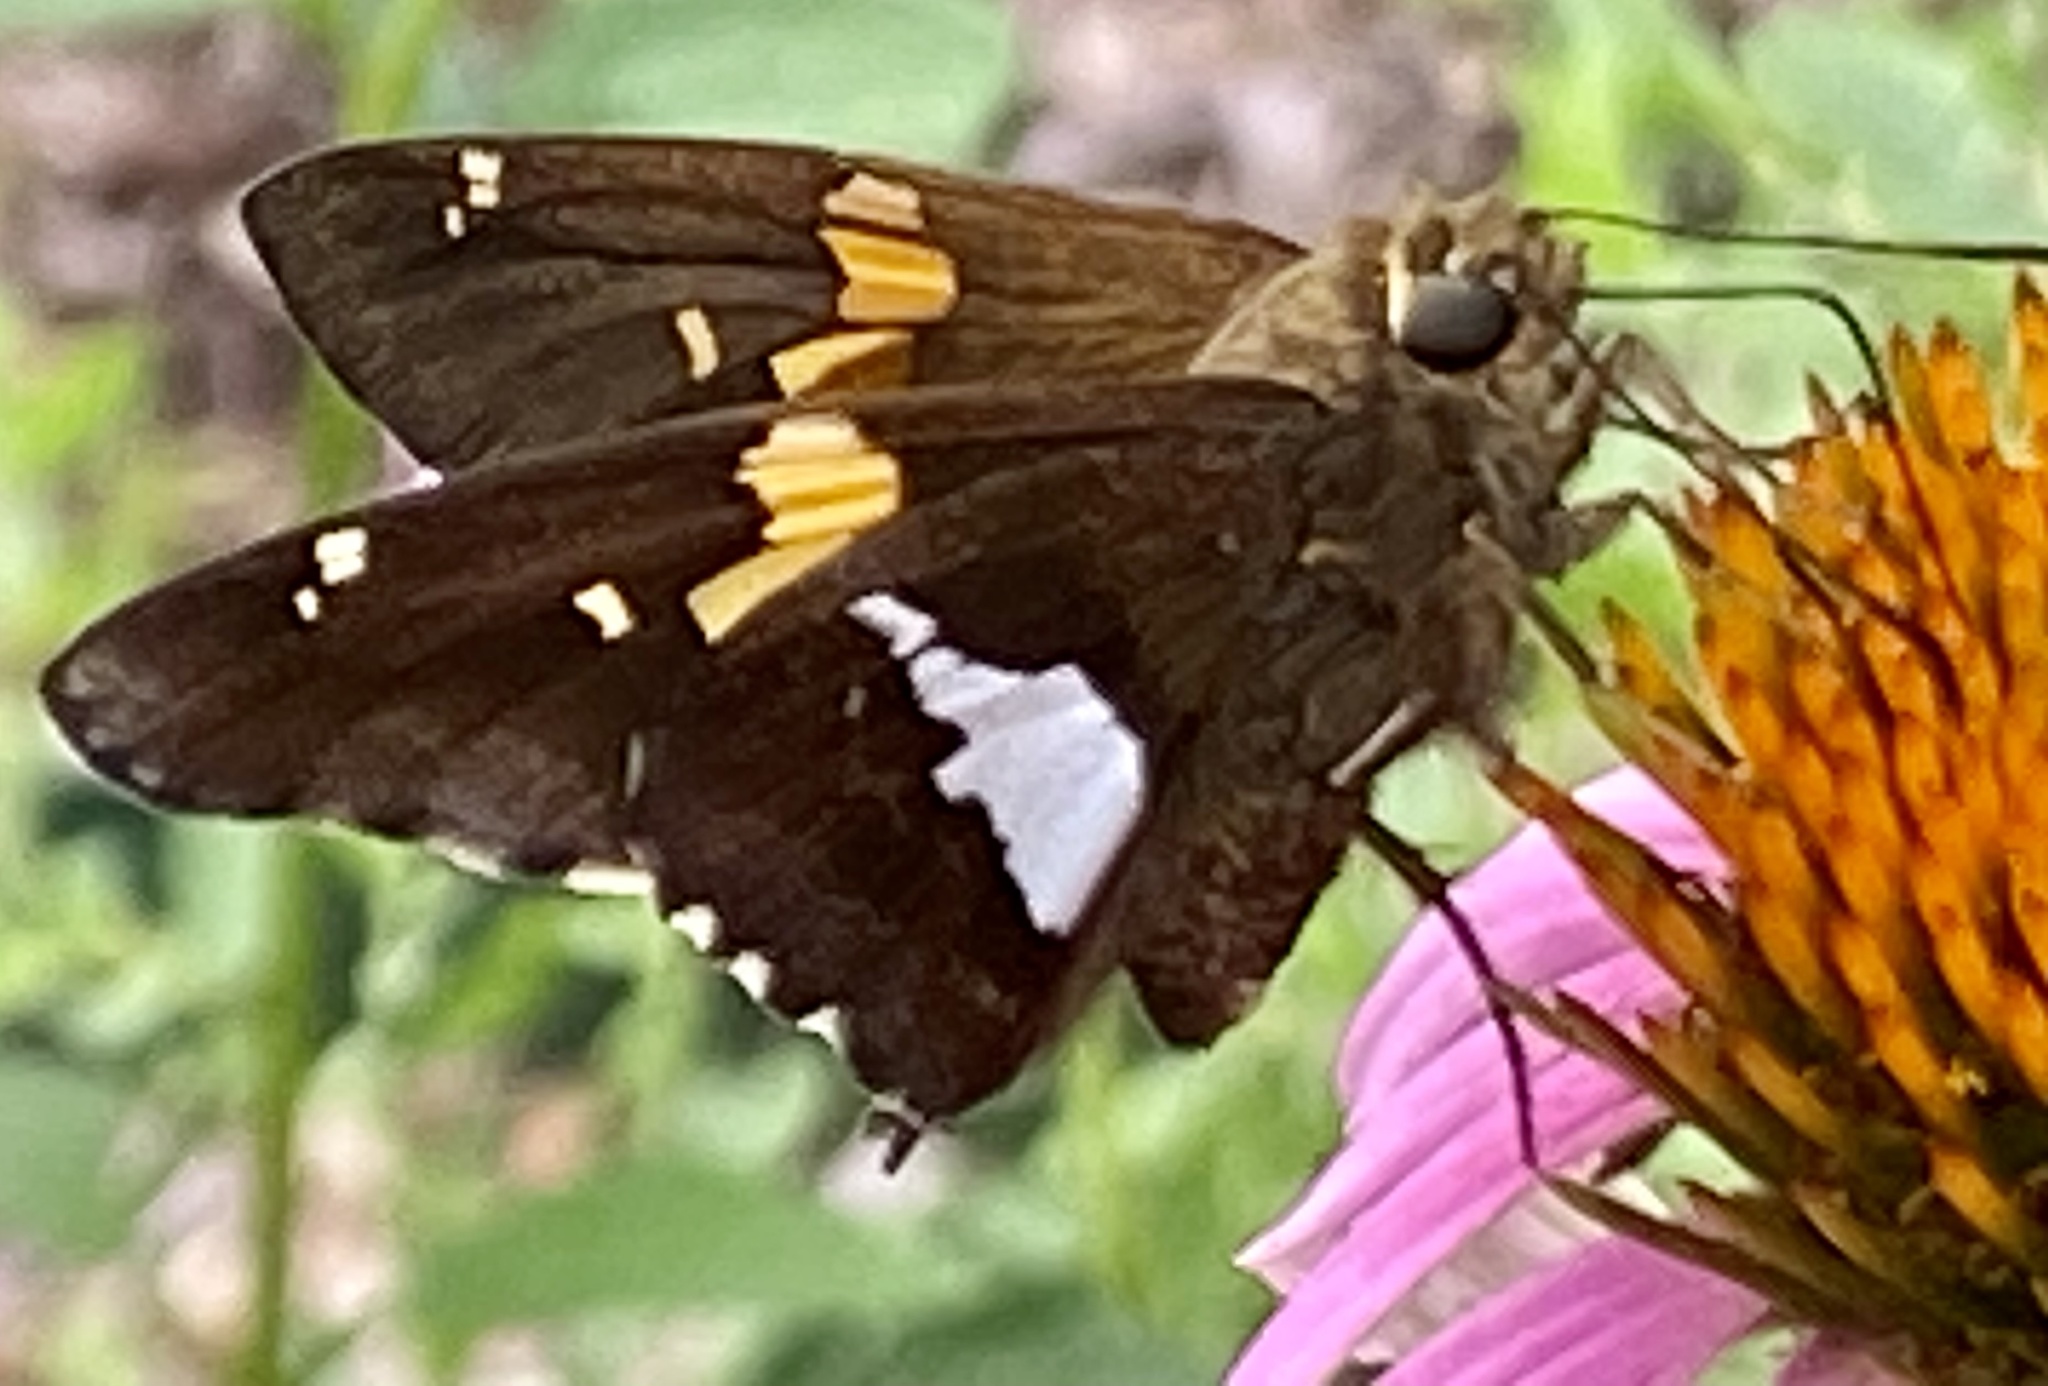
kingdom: Animalia
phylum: Arthropoda
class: Insecta
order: Lepidoptera
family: Hesperiidae
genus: Epargyreus
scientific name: Epargyreus clarus
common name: Silver-spotted skipper
